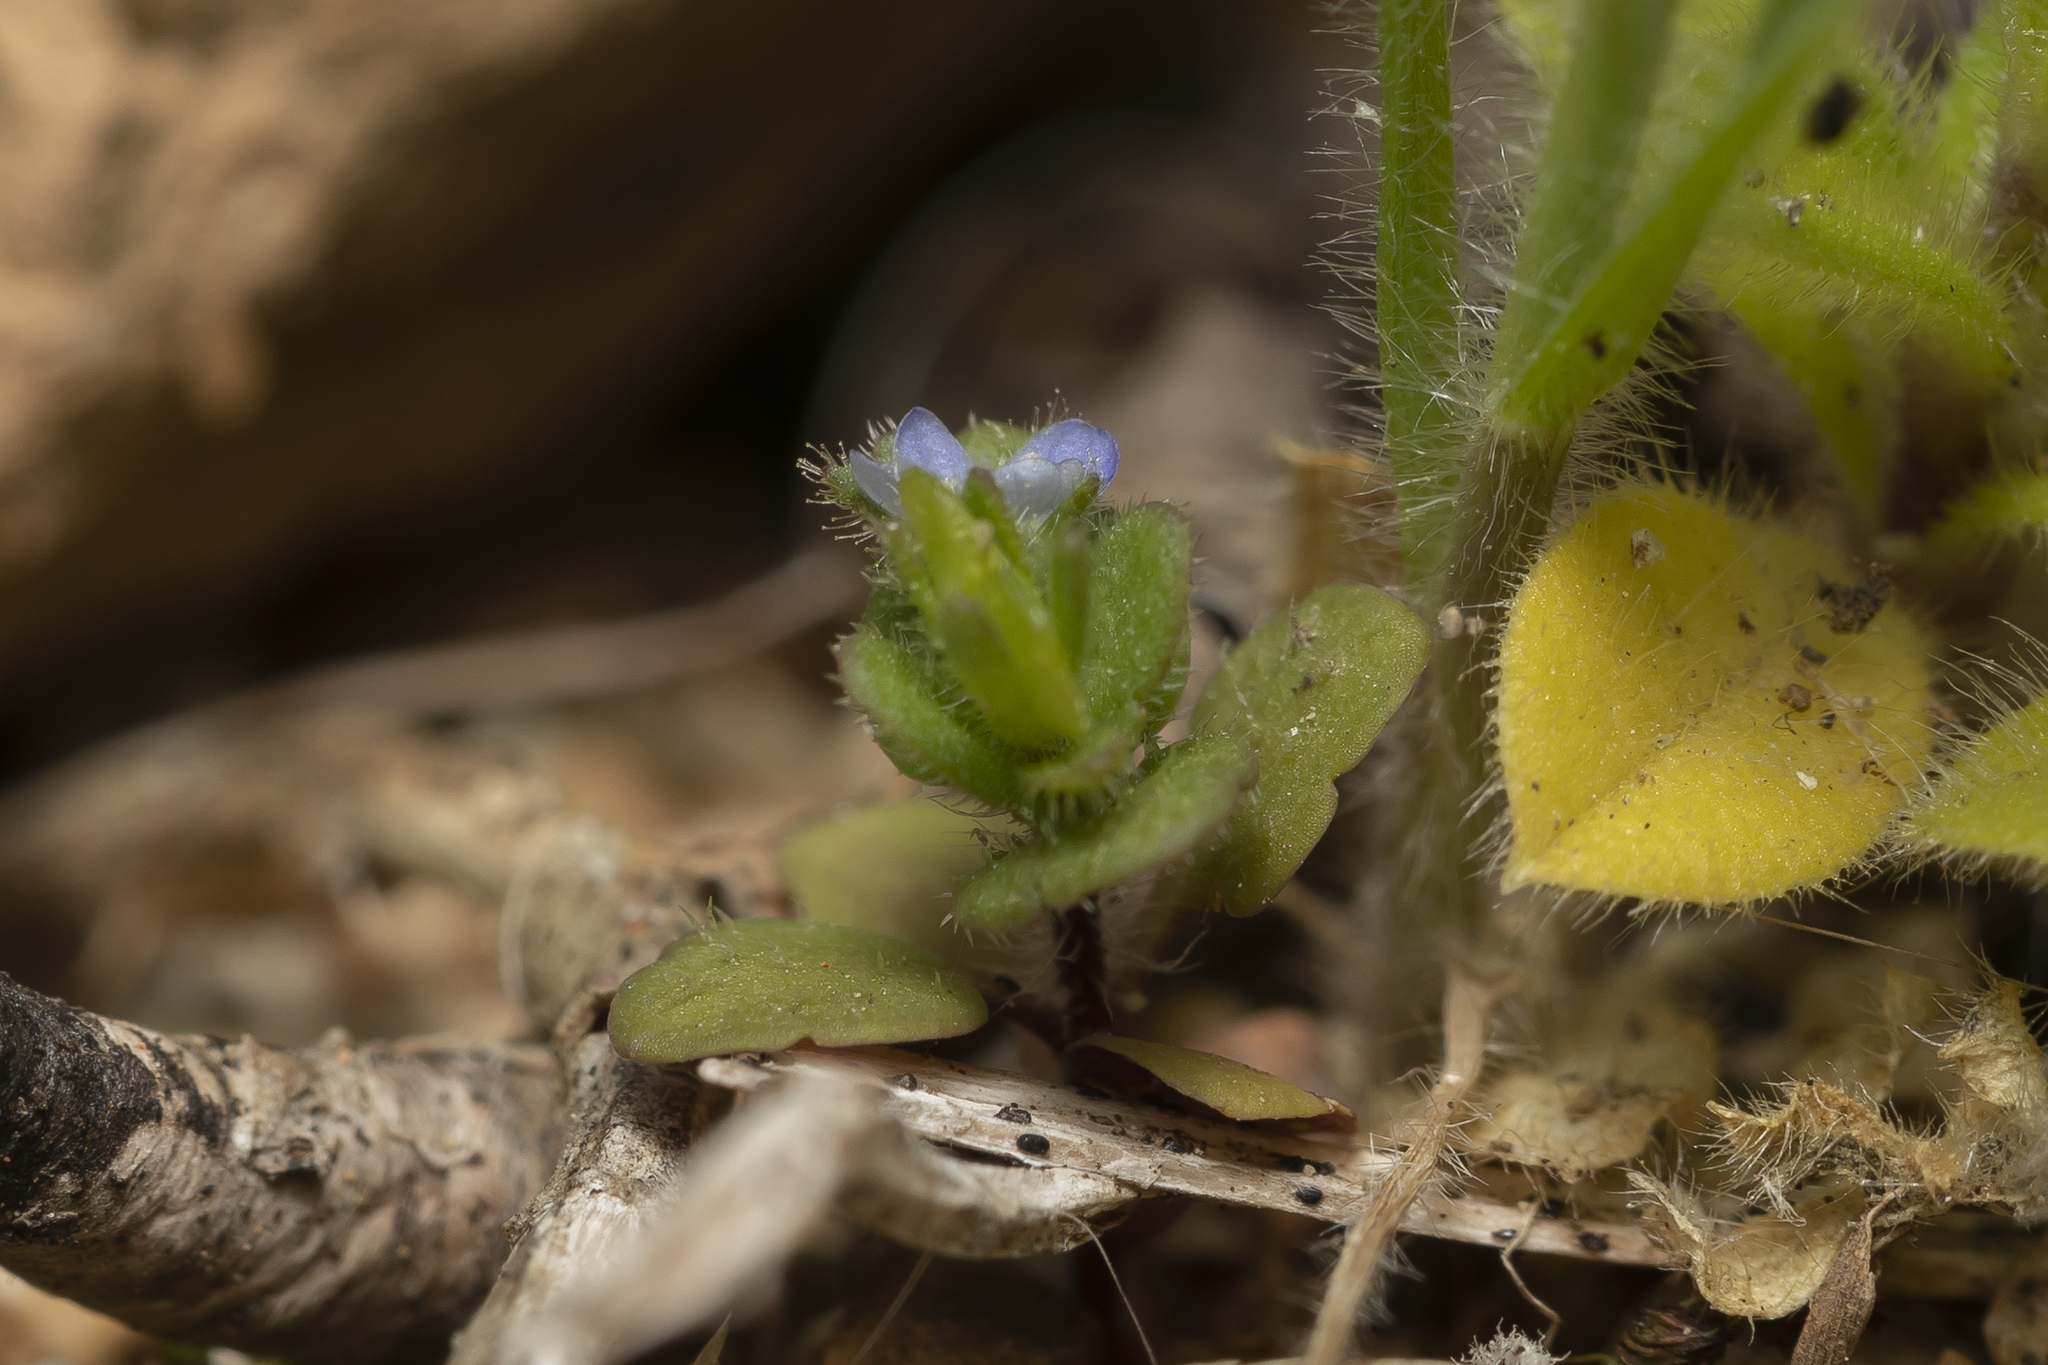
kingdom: Plantae
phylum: Tracheophyta
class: Magnoliopsida
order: Lamiales
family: Plantaginaceae
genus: Veronica
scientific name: Veronica arvensis
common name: Corn speedwell
